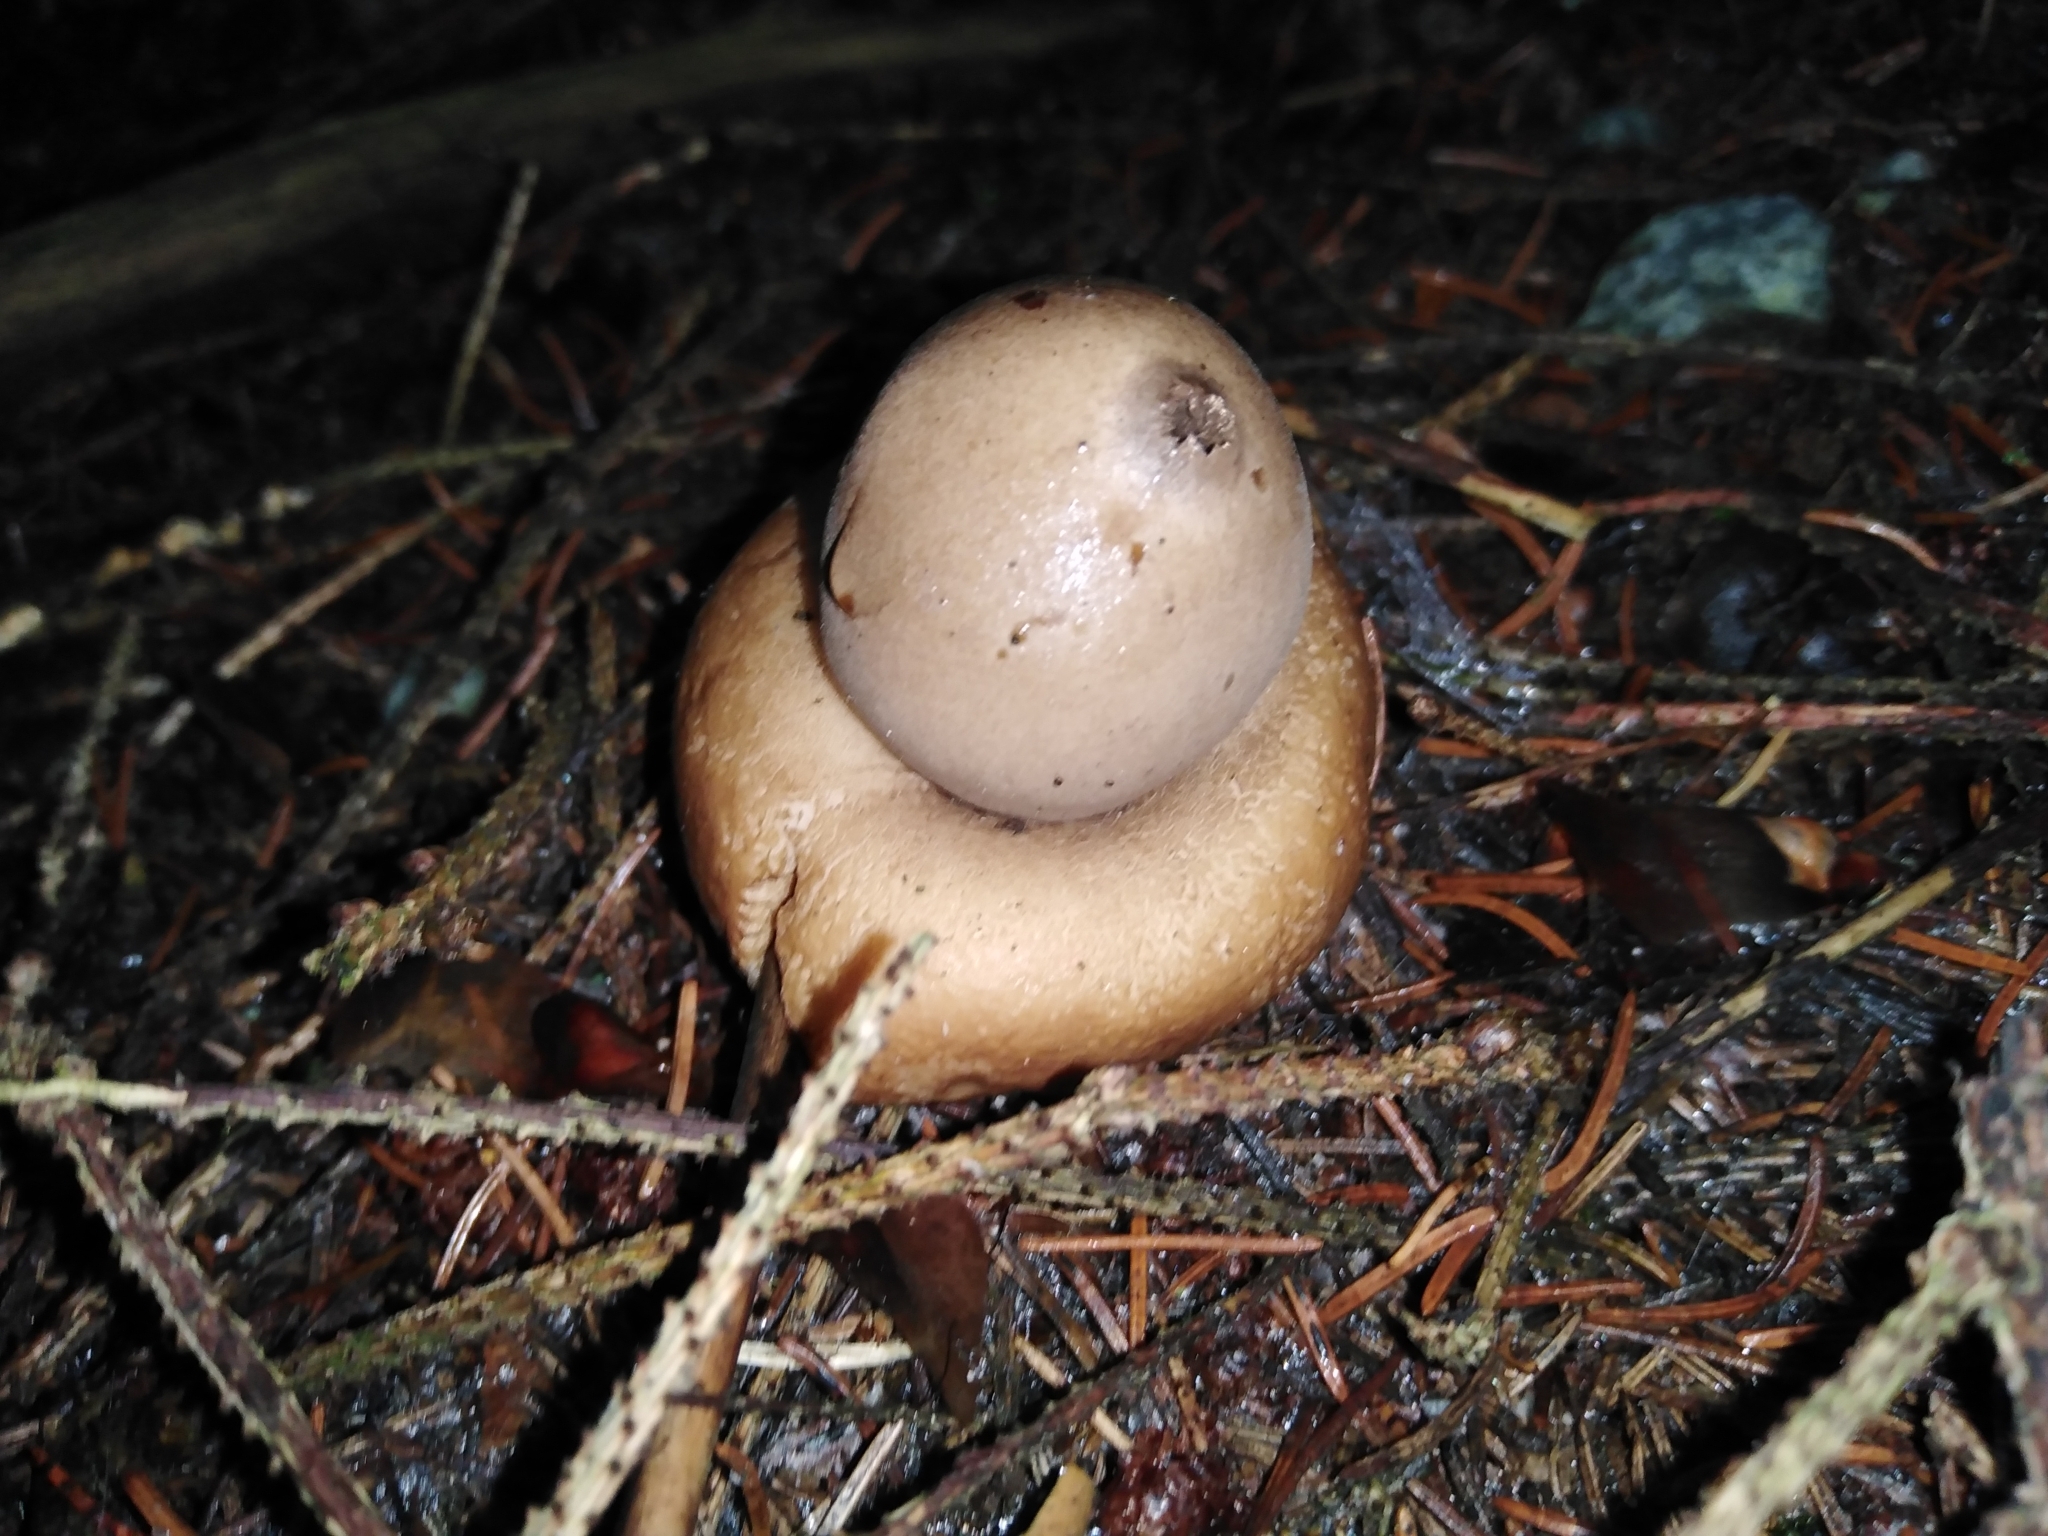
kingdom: Fungi
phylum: Basidiomycota
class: Agaricomycetes
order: Geastrales
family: Geastraceae
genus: Geastrum
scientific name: Geastrum fimbriatum
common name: Sessile earthstar
